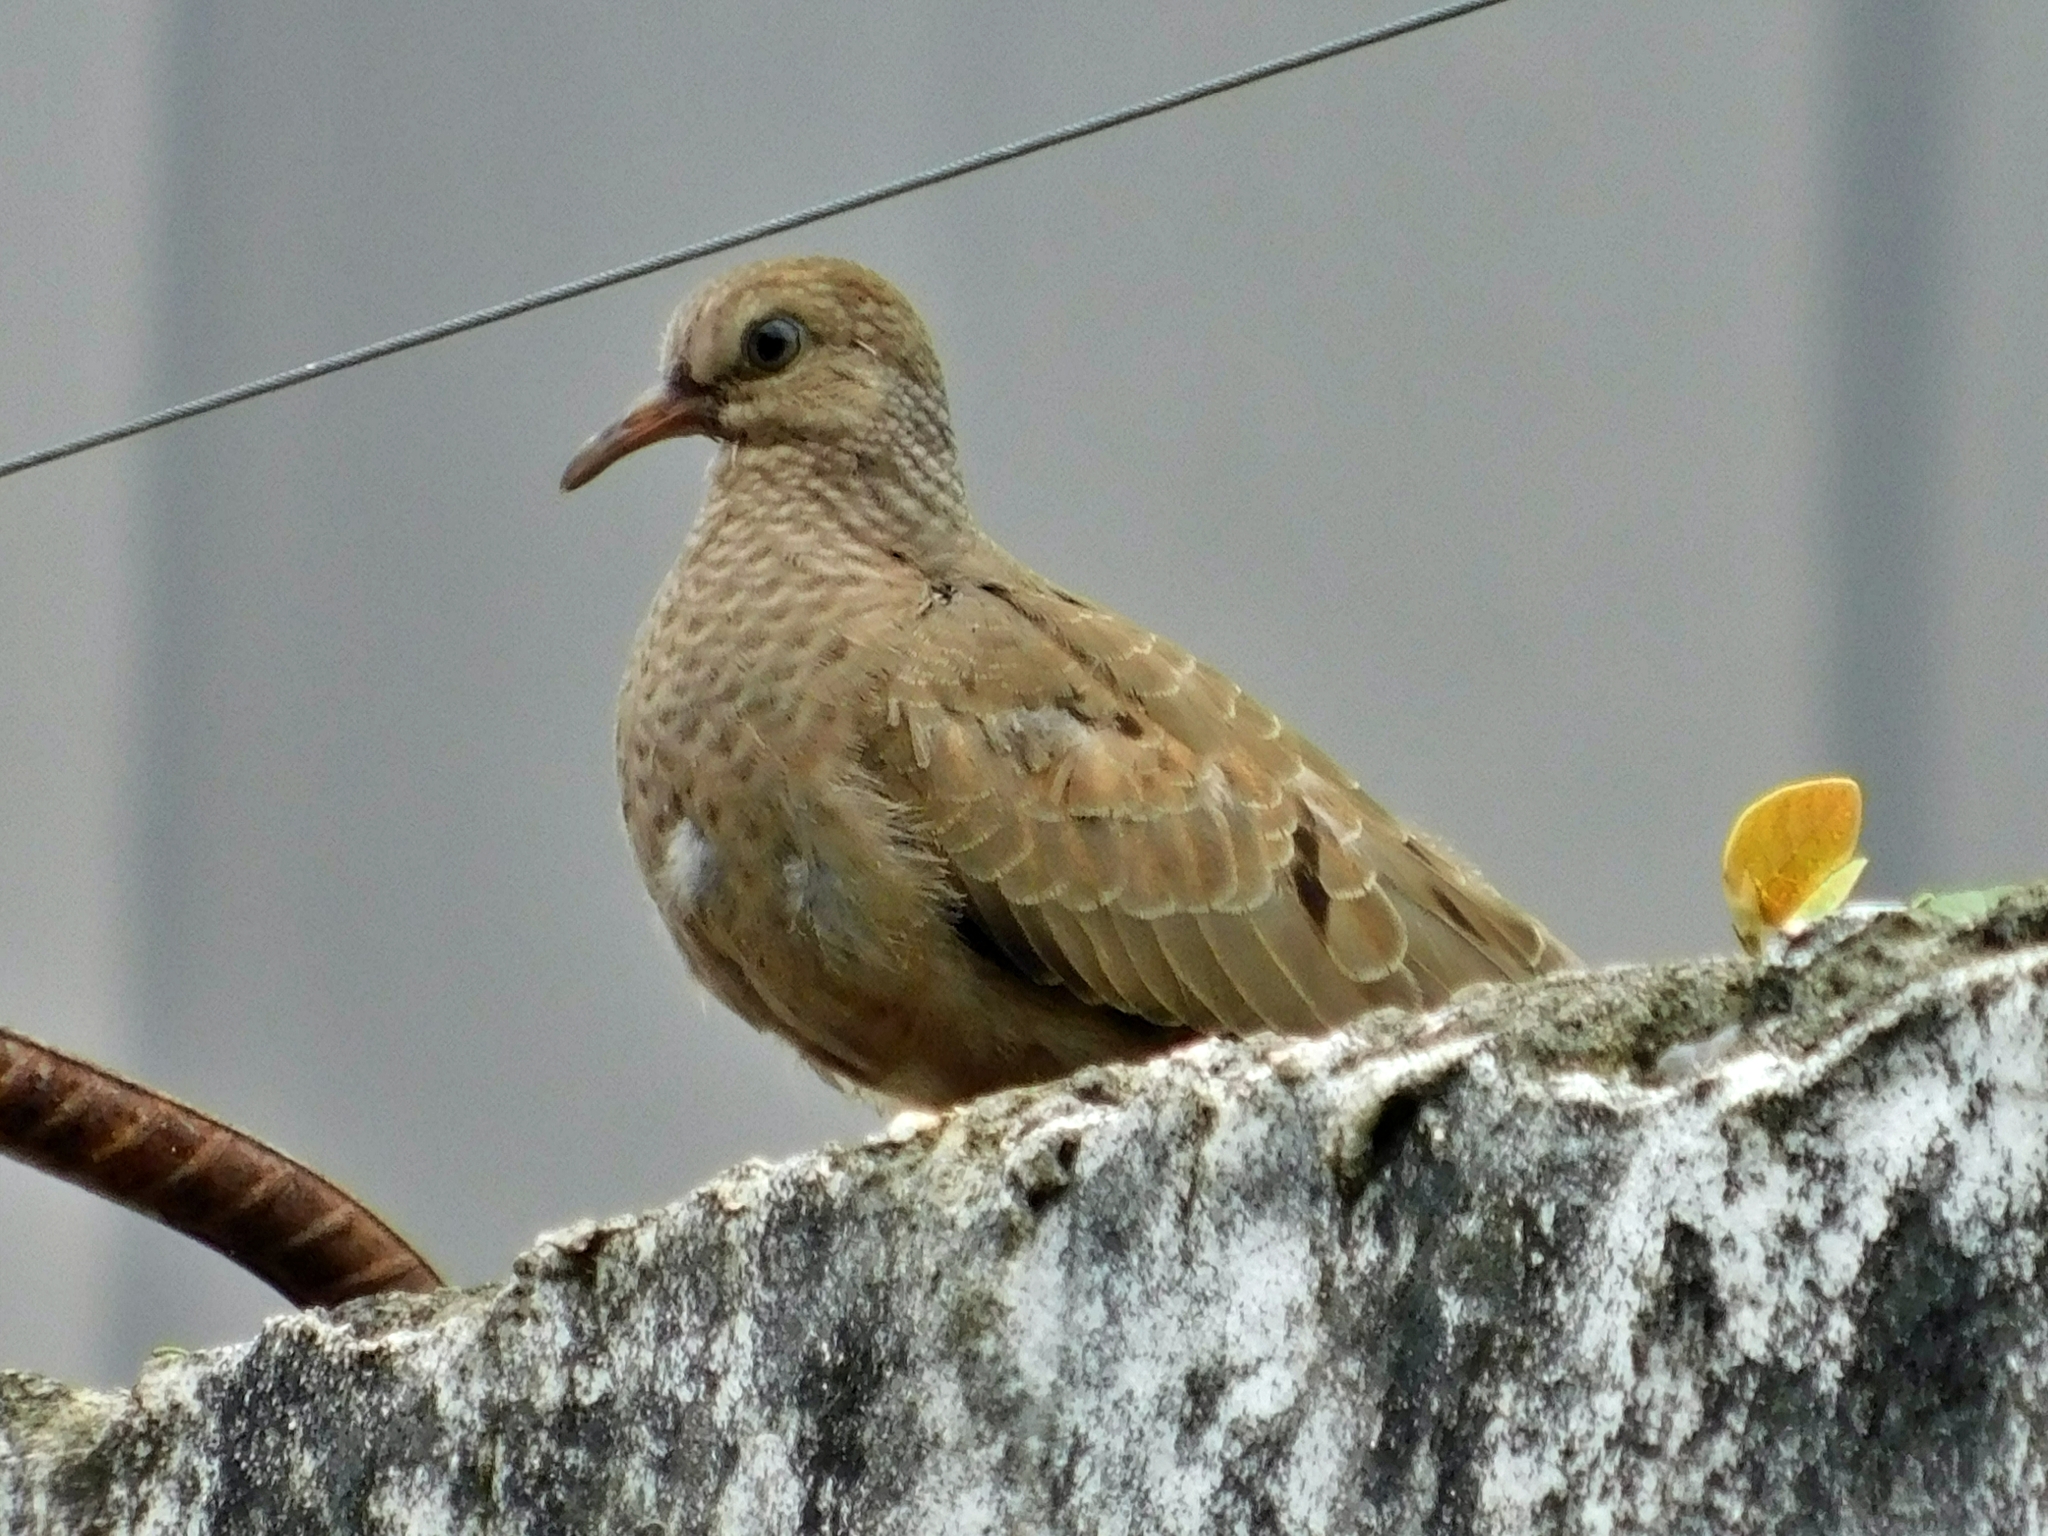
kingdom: Animalia
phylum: Chordata
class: Aves
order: Columbiformes
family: Columbidae
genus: Columbina
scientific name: Columbina passerina
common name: Common ground-dove
